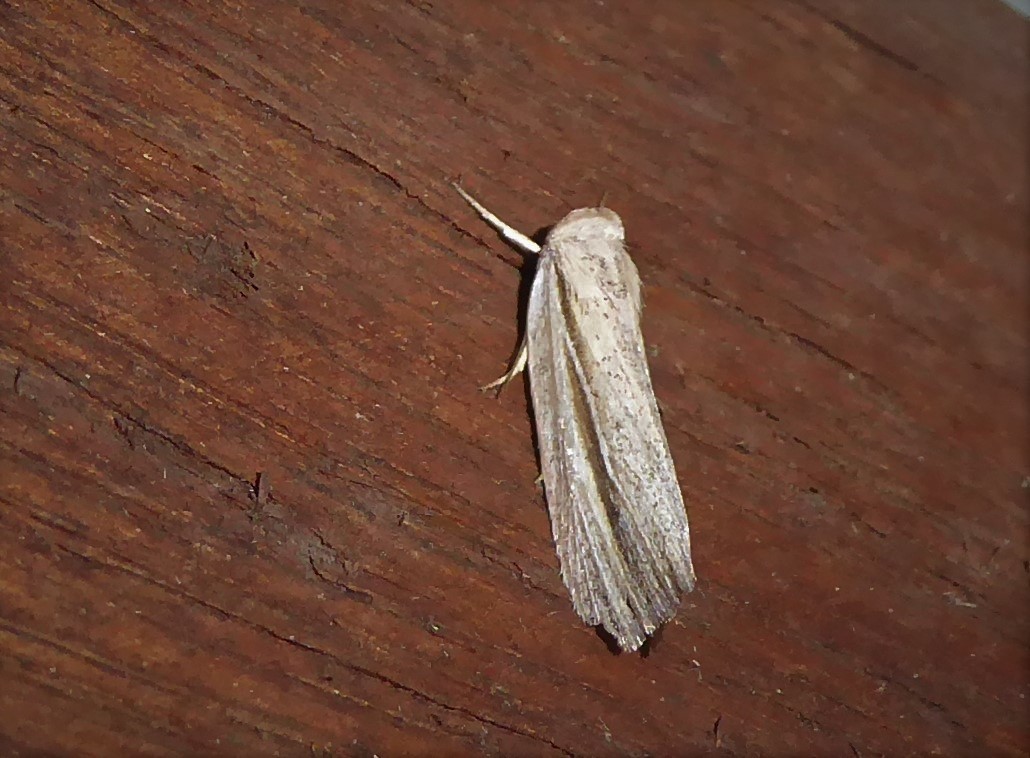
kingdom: Animalia
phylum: Arthropoda
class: Insecta
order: Lepidoptera
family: Noctuidae
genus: Eurypsyche
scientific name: Eurypsyche lewinii
